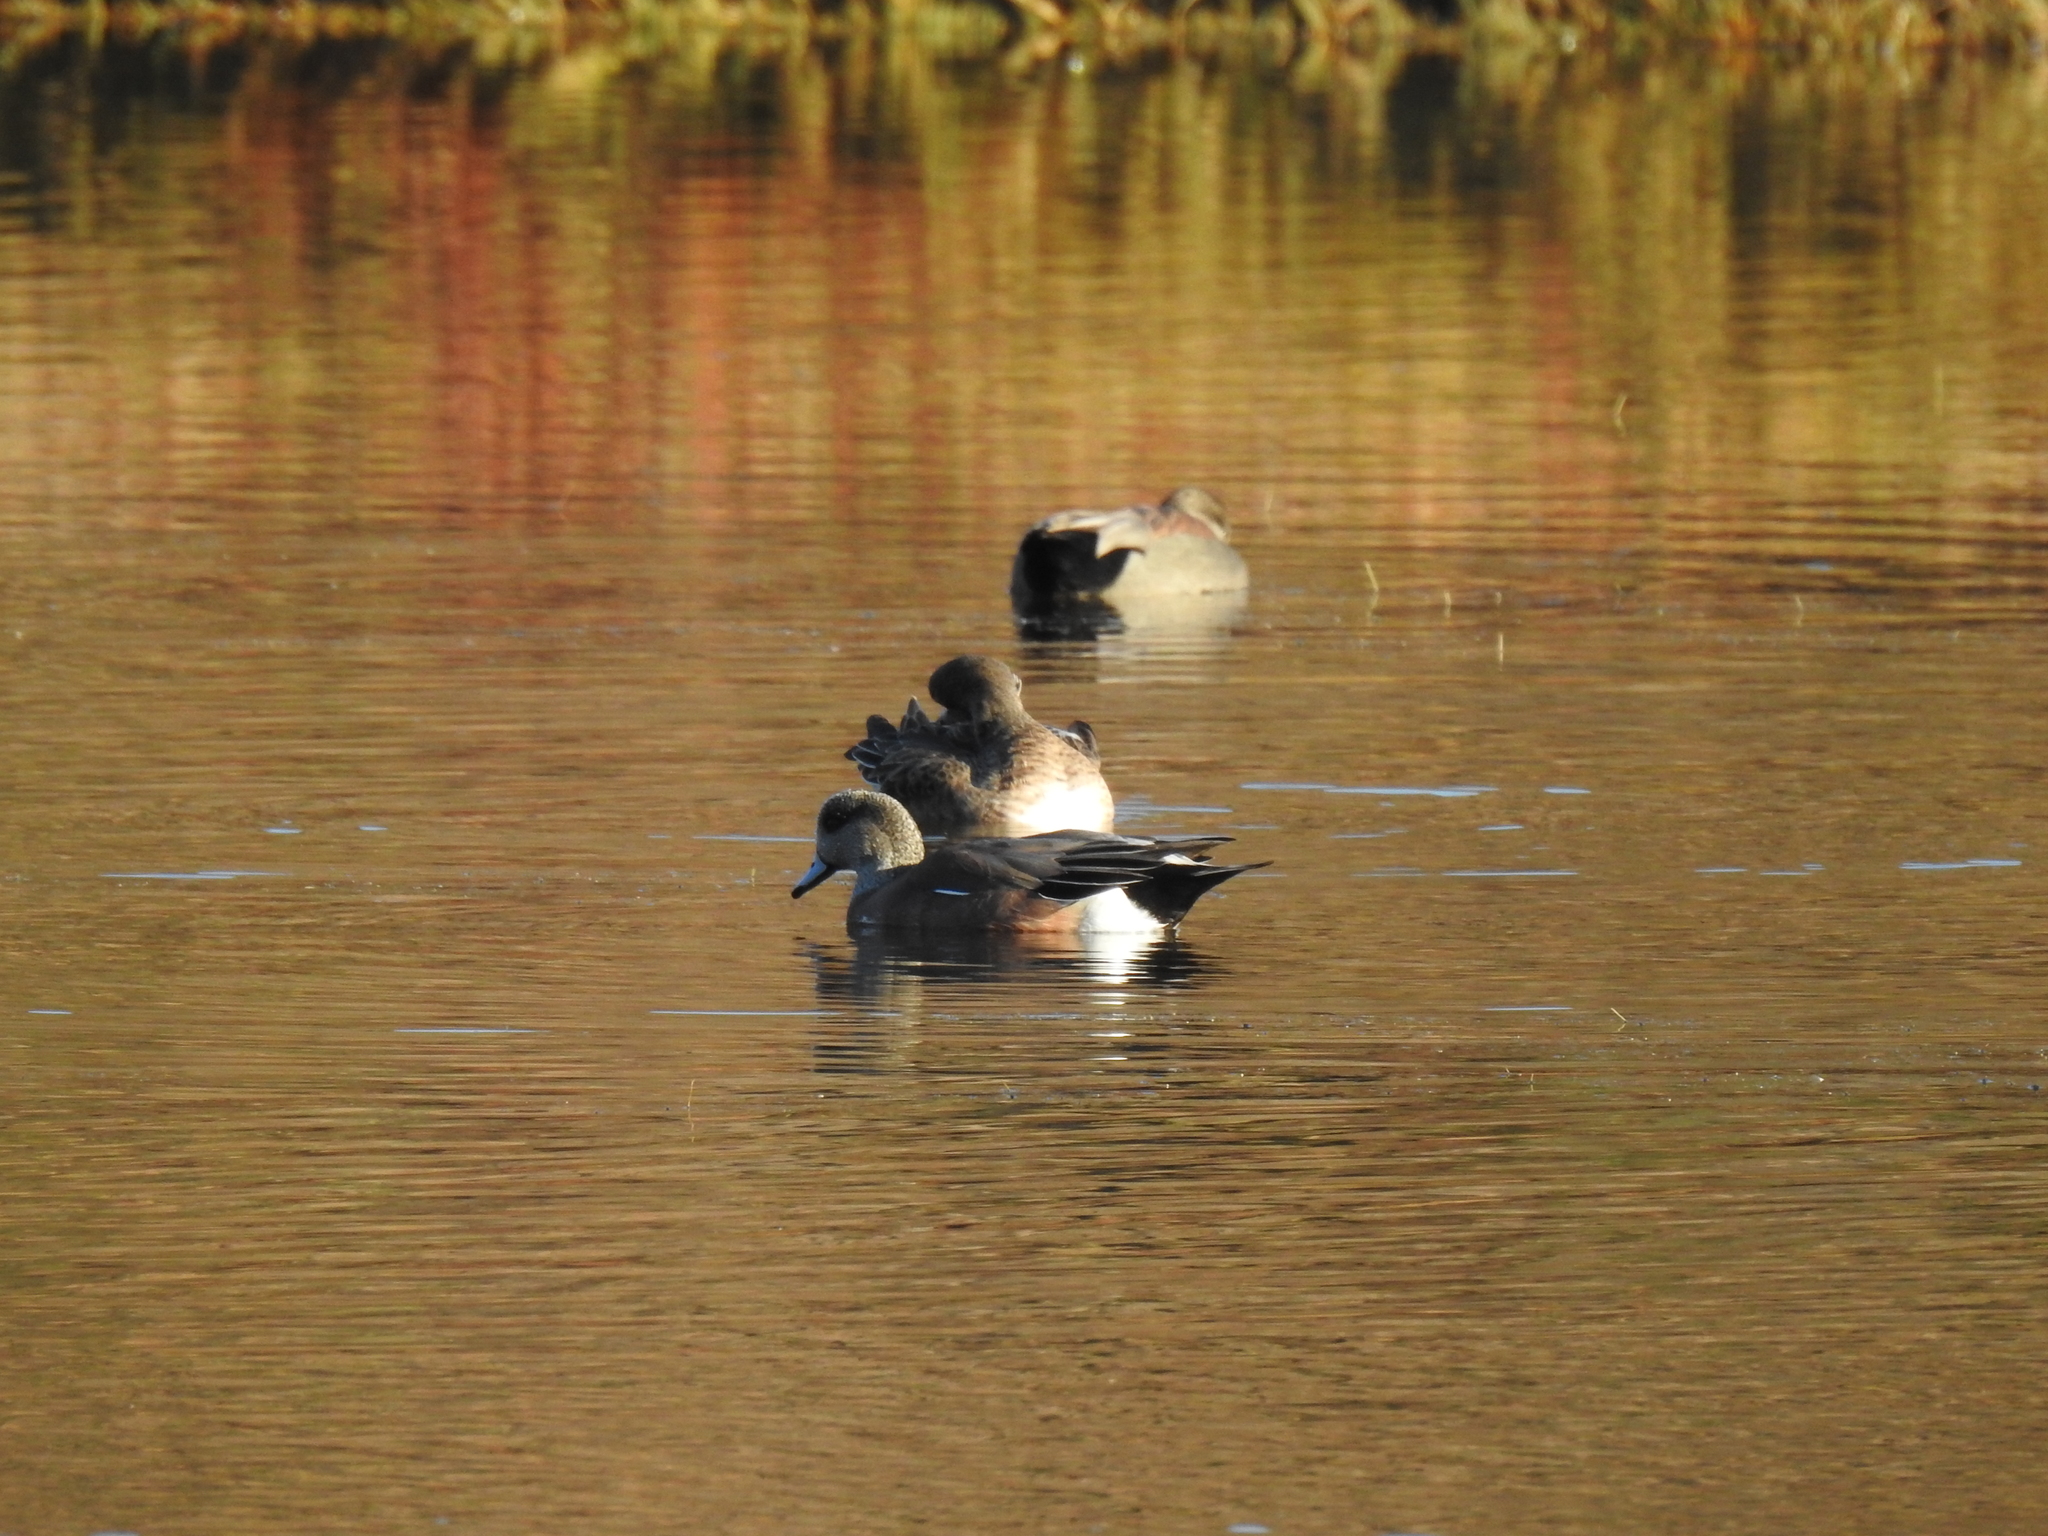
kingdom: Animalia
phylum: Chordata
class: Aves
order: Anseriformes
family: Anatidae
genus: Mareca
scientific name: Mareca americana
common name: American wigeon
